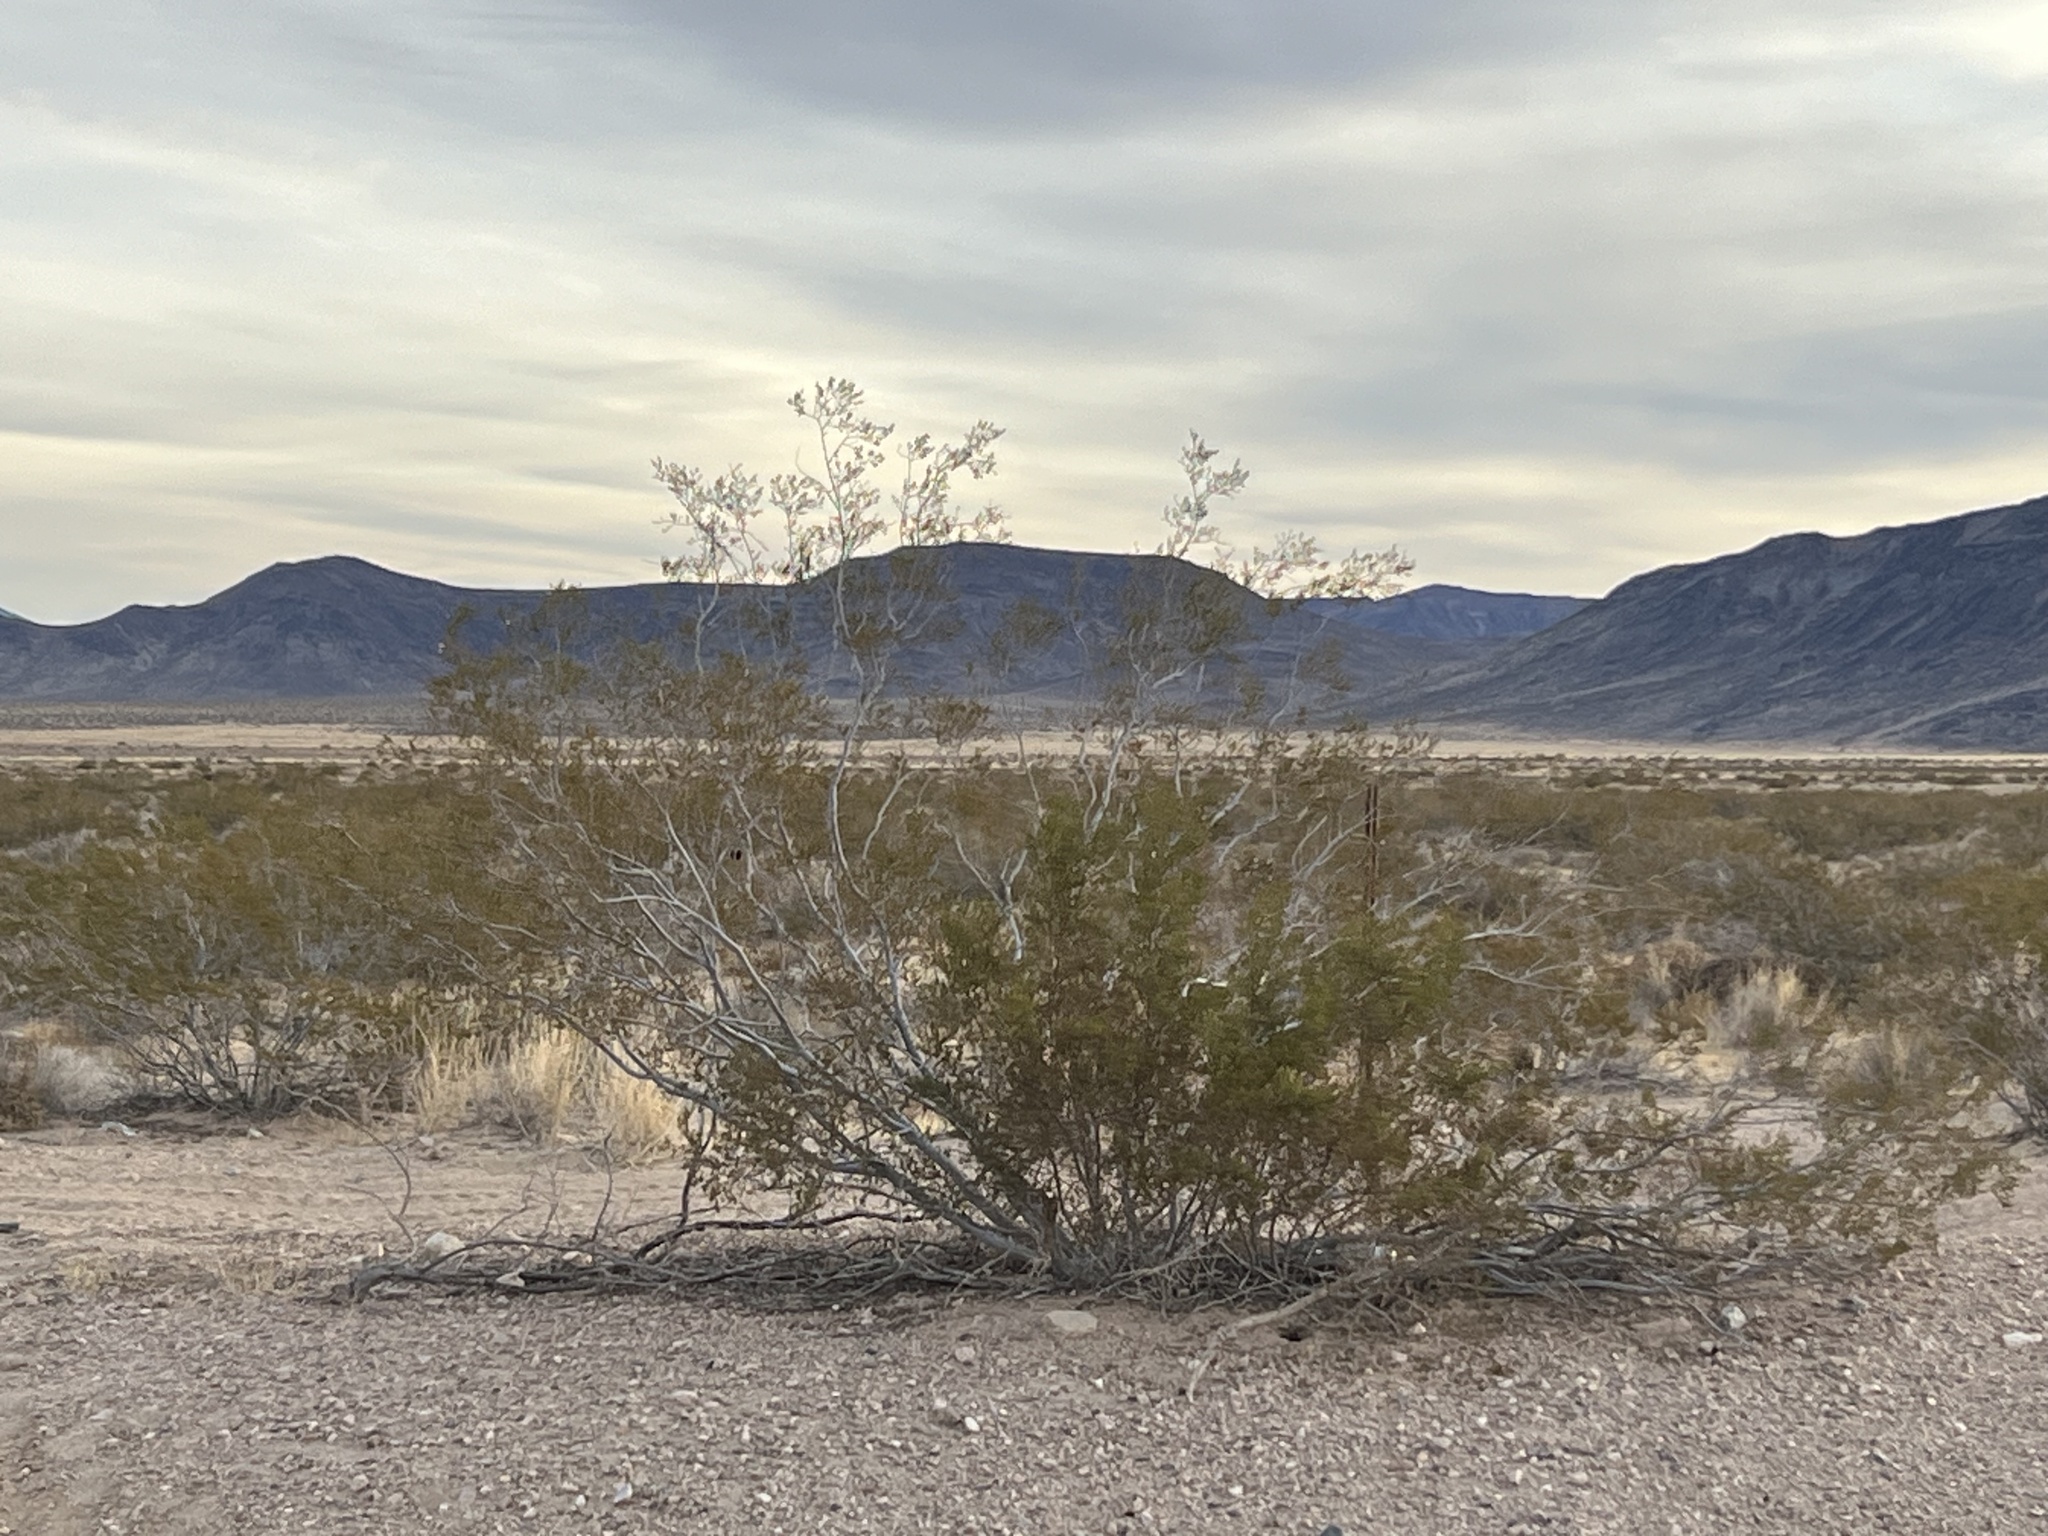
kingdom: Plantae
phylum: Tracheophyta
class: Magnoliopsida
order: Zygophyllales
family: Zygophyllaceae
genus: Larrea
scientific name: Larrea tridentata
